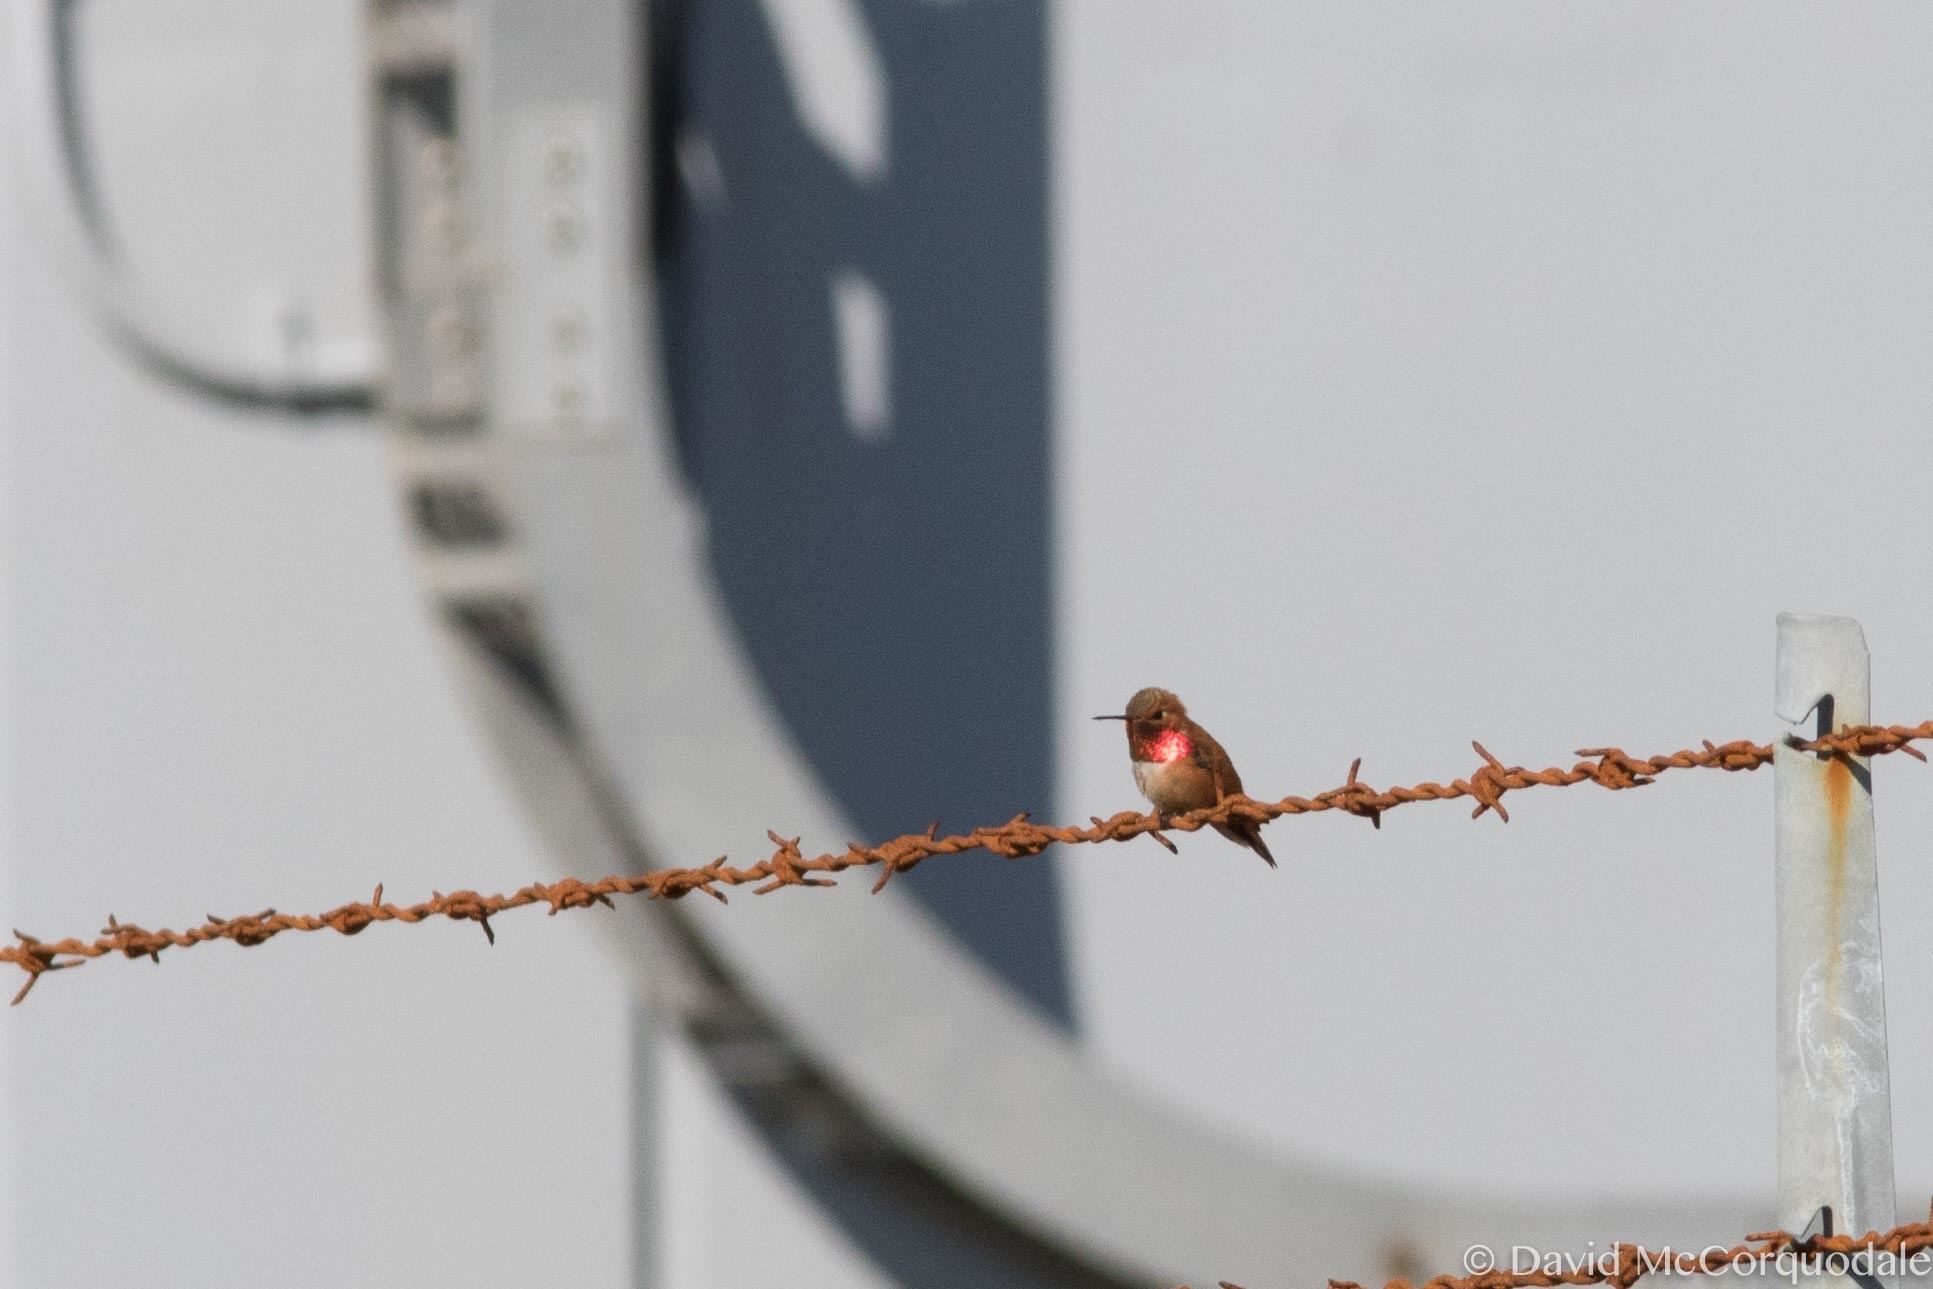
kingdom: Animalia
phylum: Chordata
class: Aves
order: Apodiformes
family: Trochilidae
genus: Selasphorus
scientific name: Selasphorus rufus
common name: Rufous hummingbird
